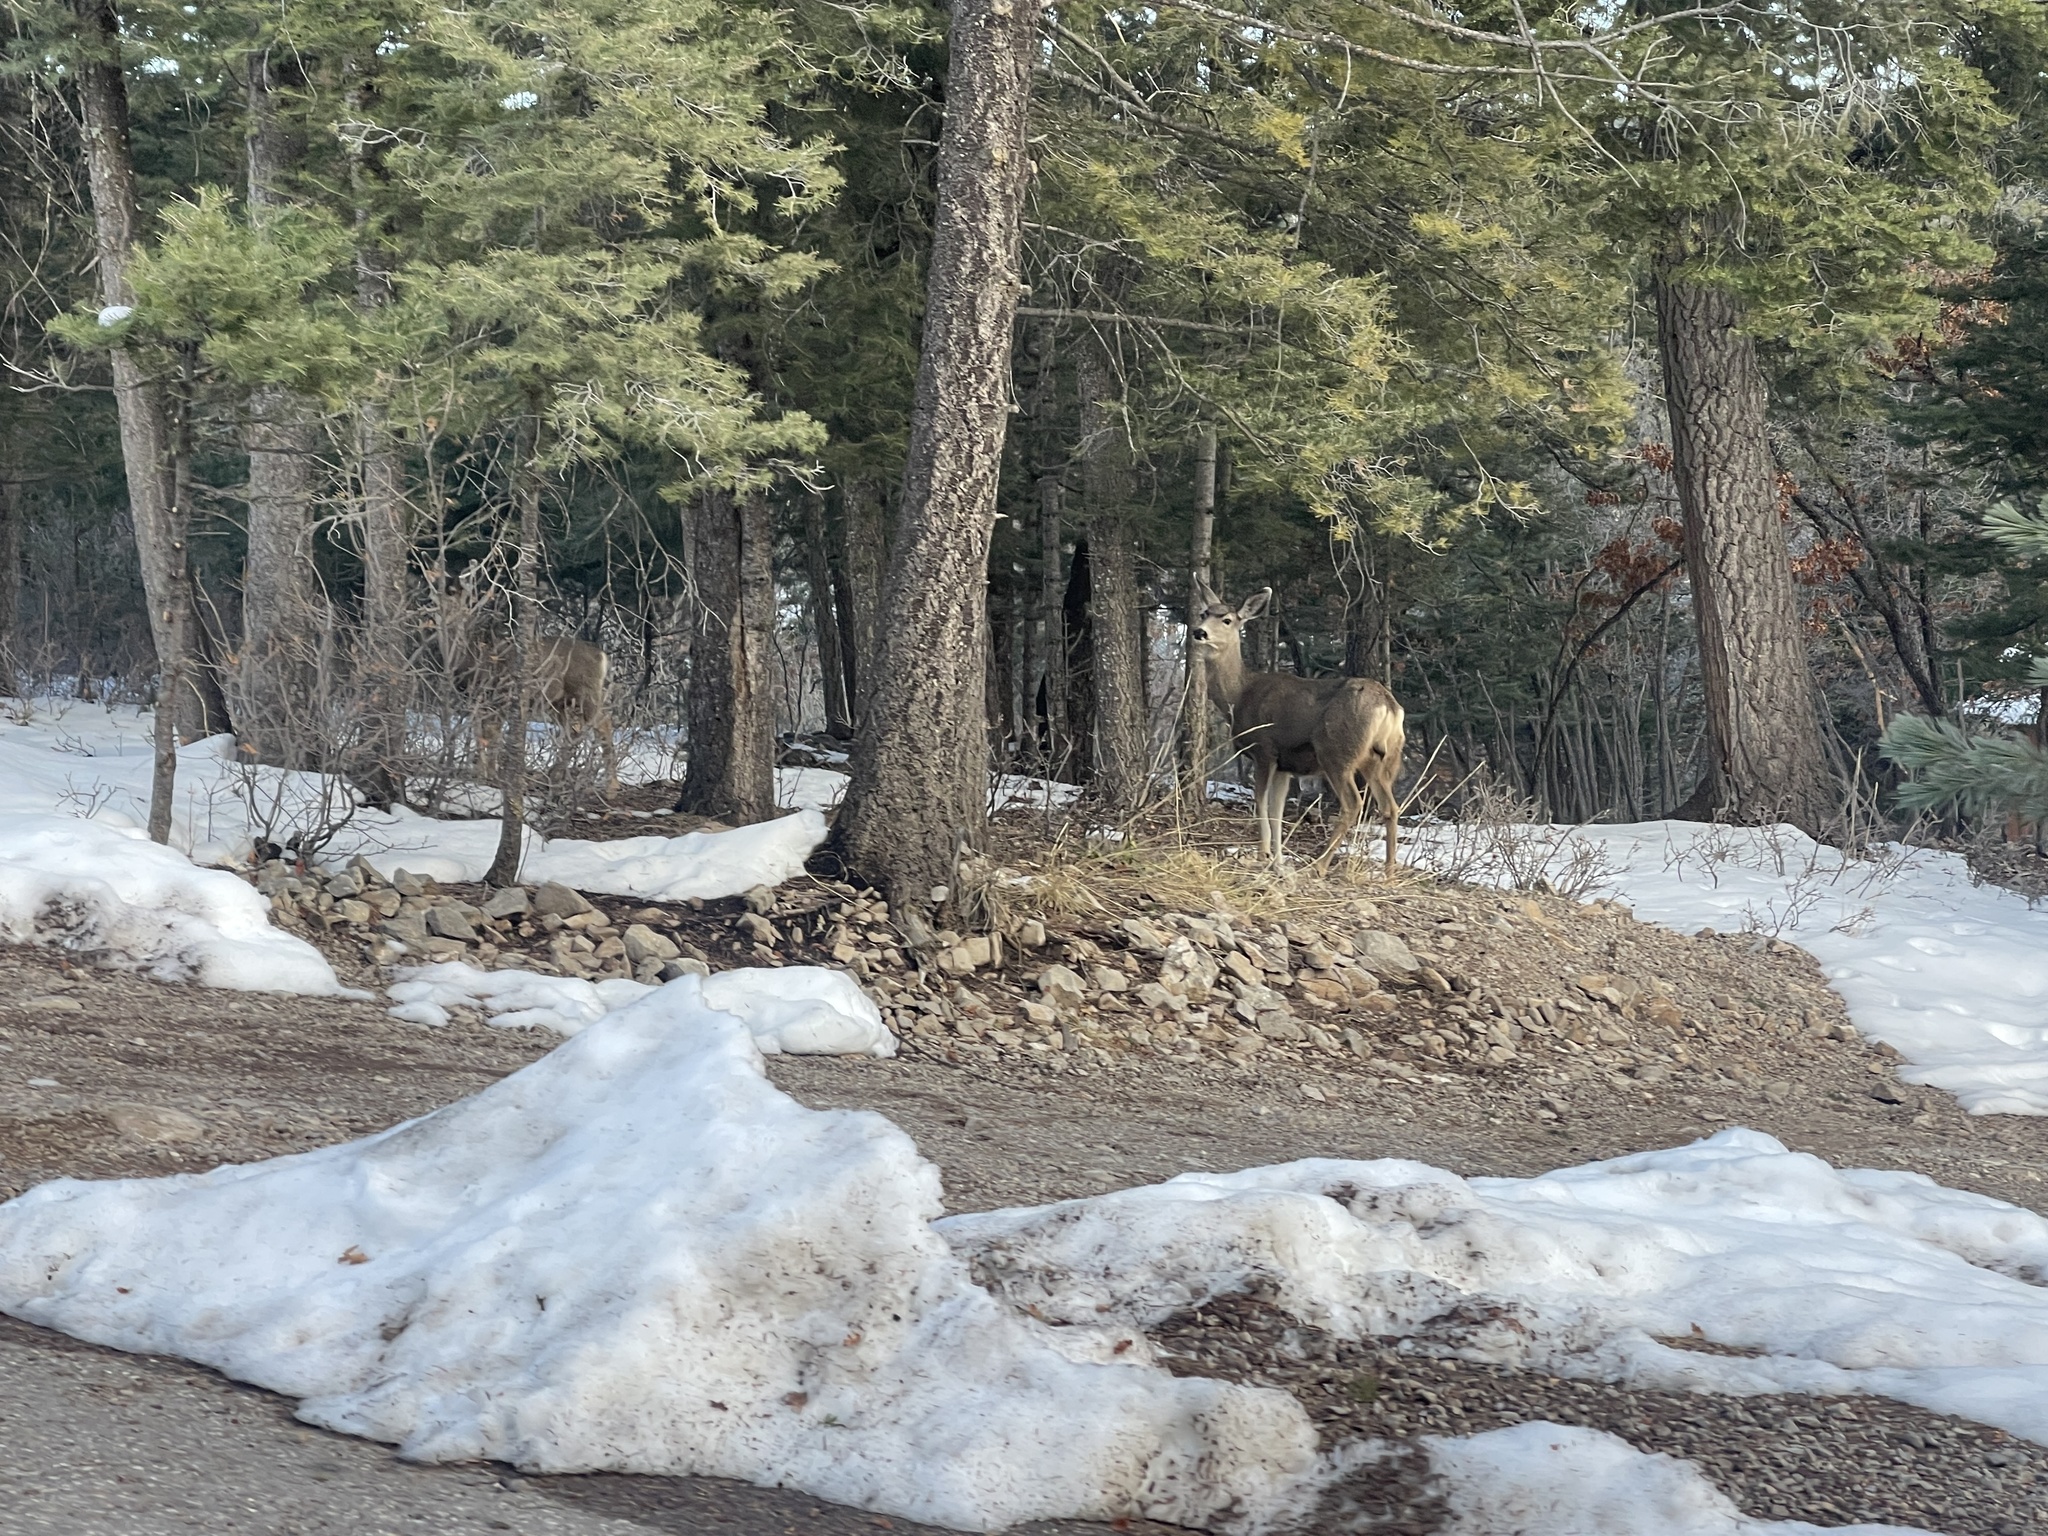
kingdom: Animalia
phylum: Chordata
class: Mammalia
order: Artiodactyla
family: Cervidae
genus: Odocoileus
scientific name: Odocoileus hemionus
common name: Mule deer
